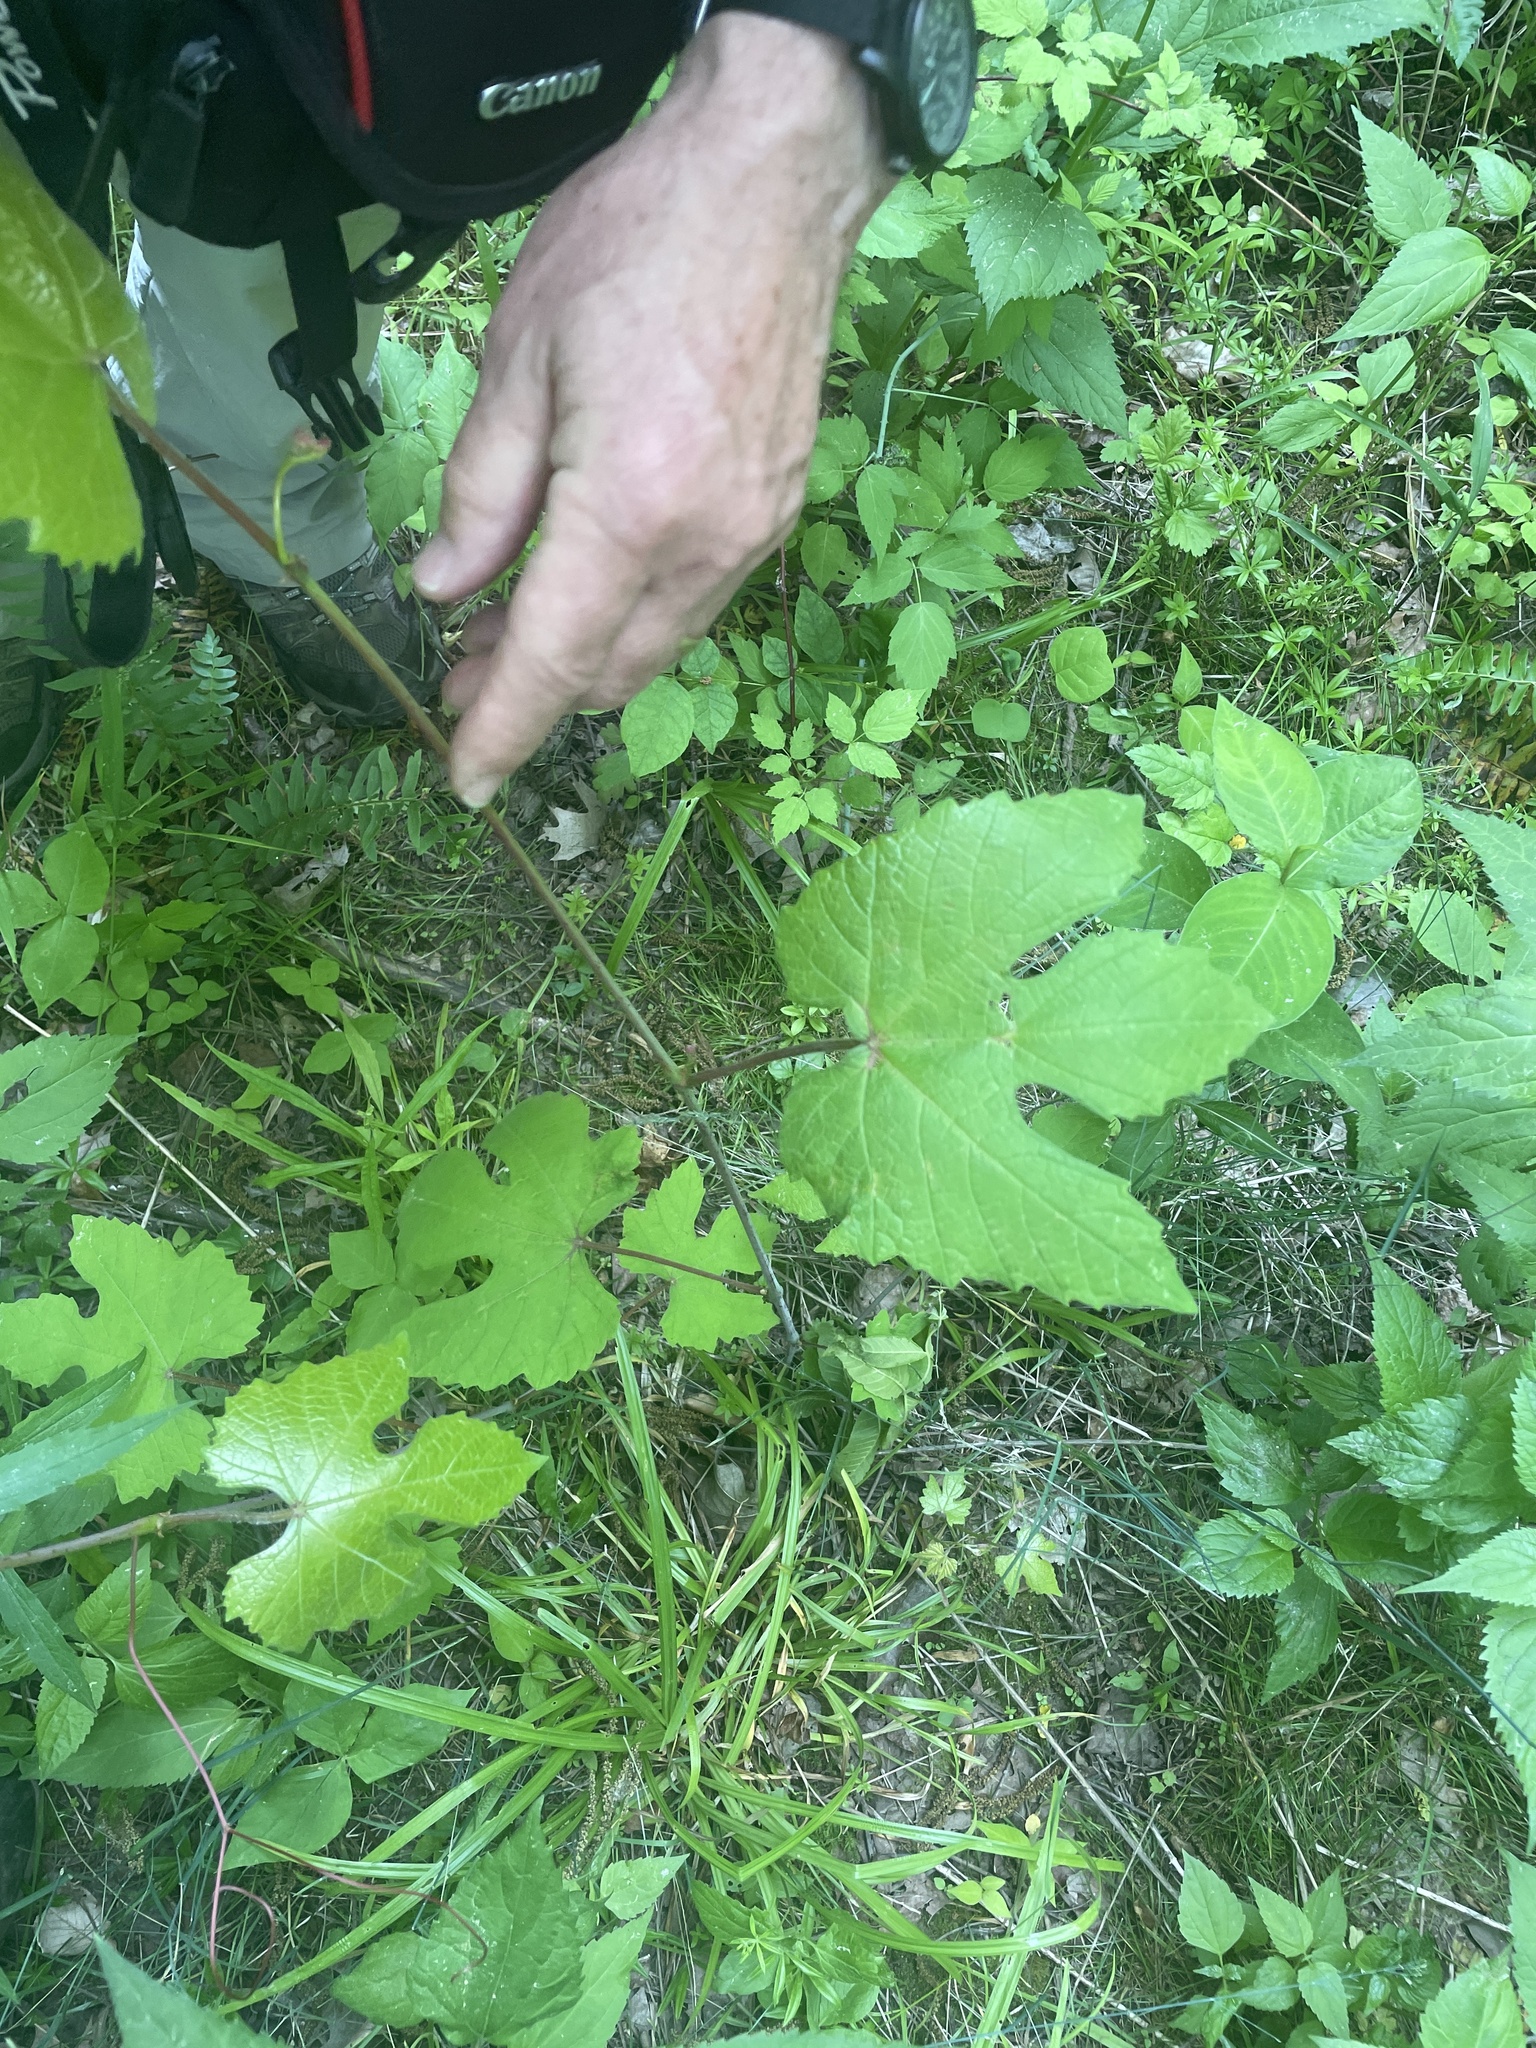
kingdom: Plantae
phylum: Tracheophyta
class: Magnoliopsida
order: Vitales
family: Vitaceae
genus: Vitis
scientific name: Vitis aestivalis
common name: Pigeon grape
